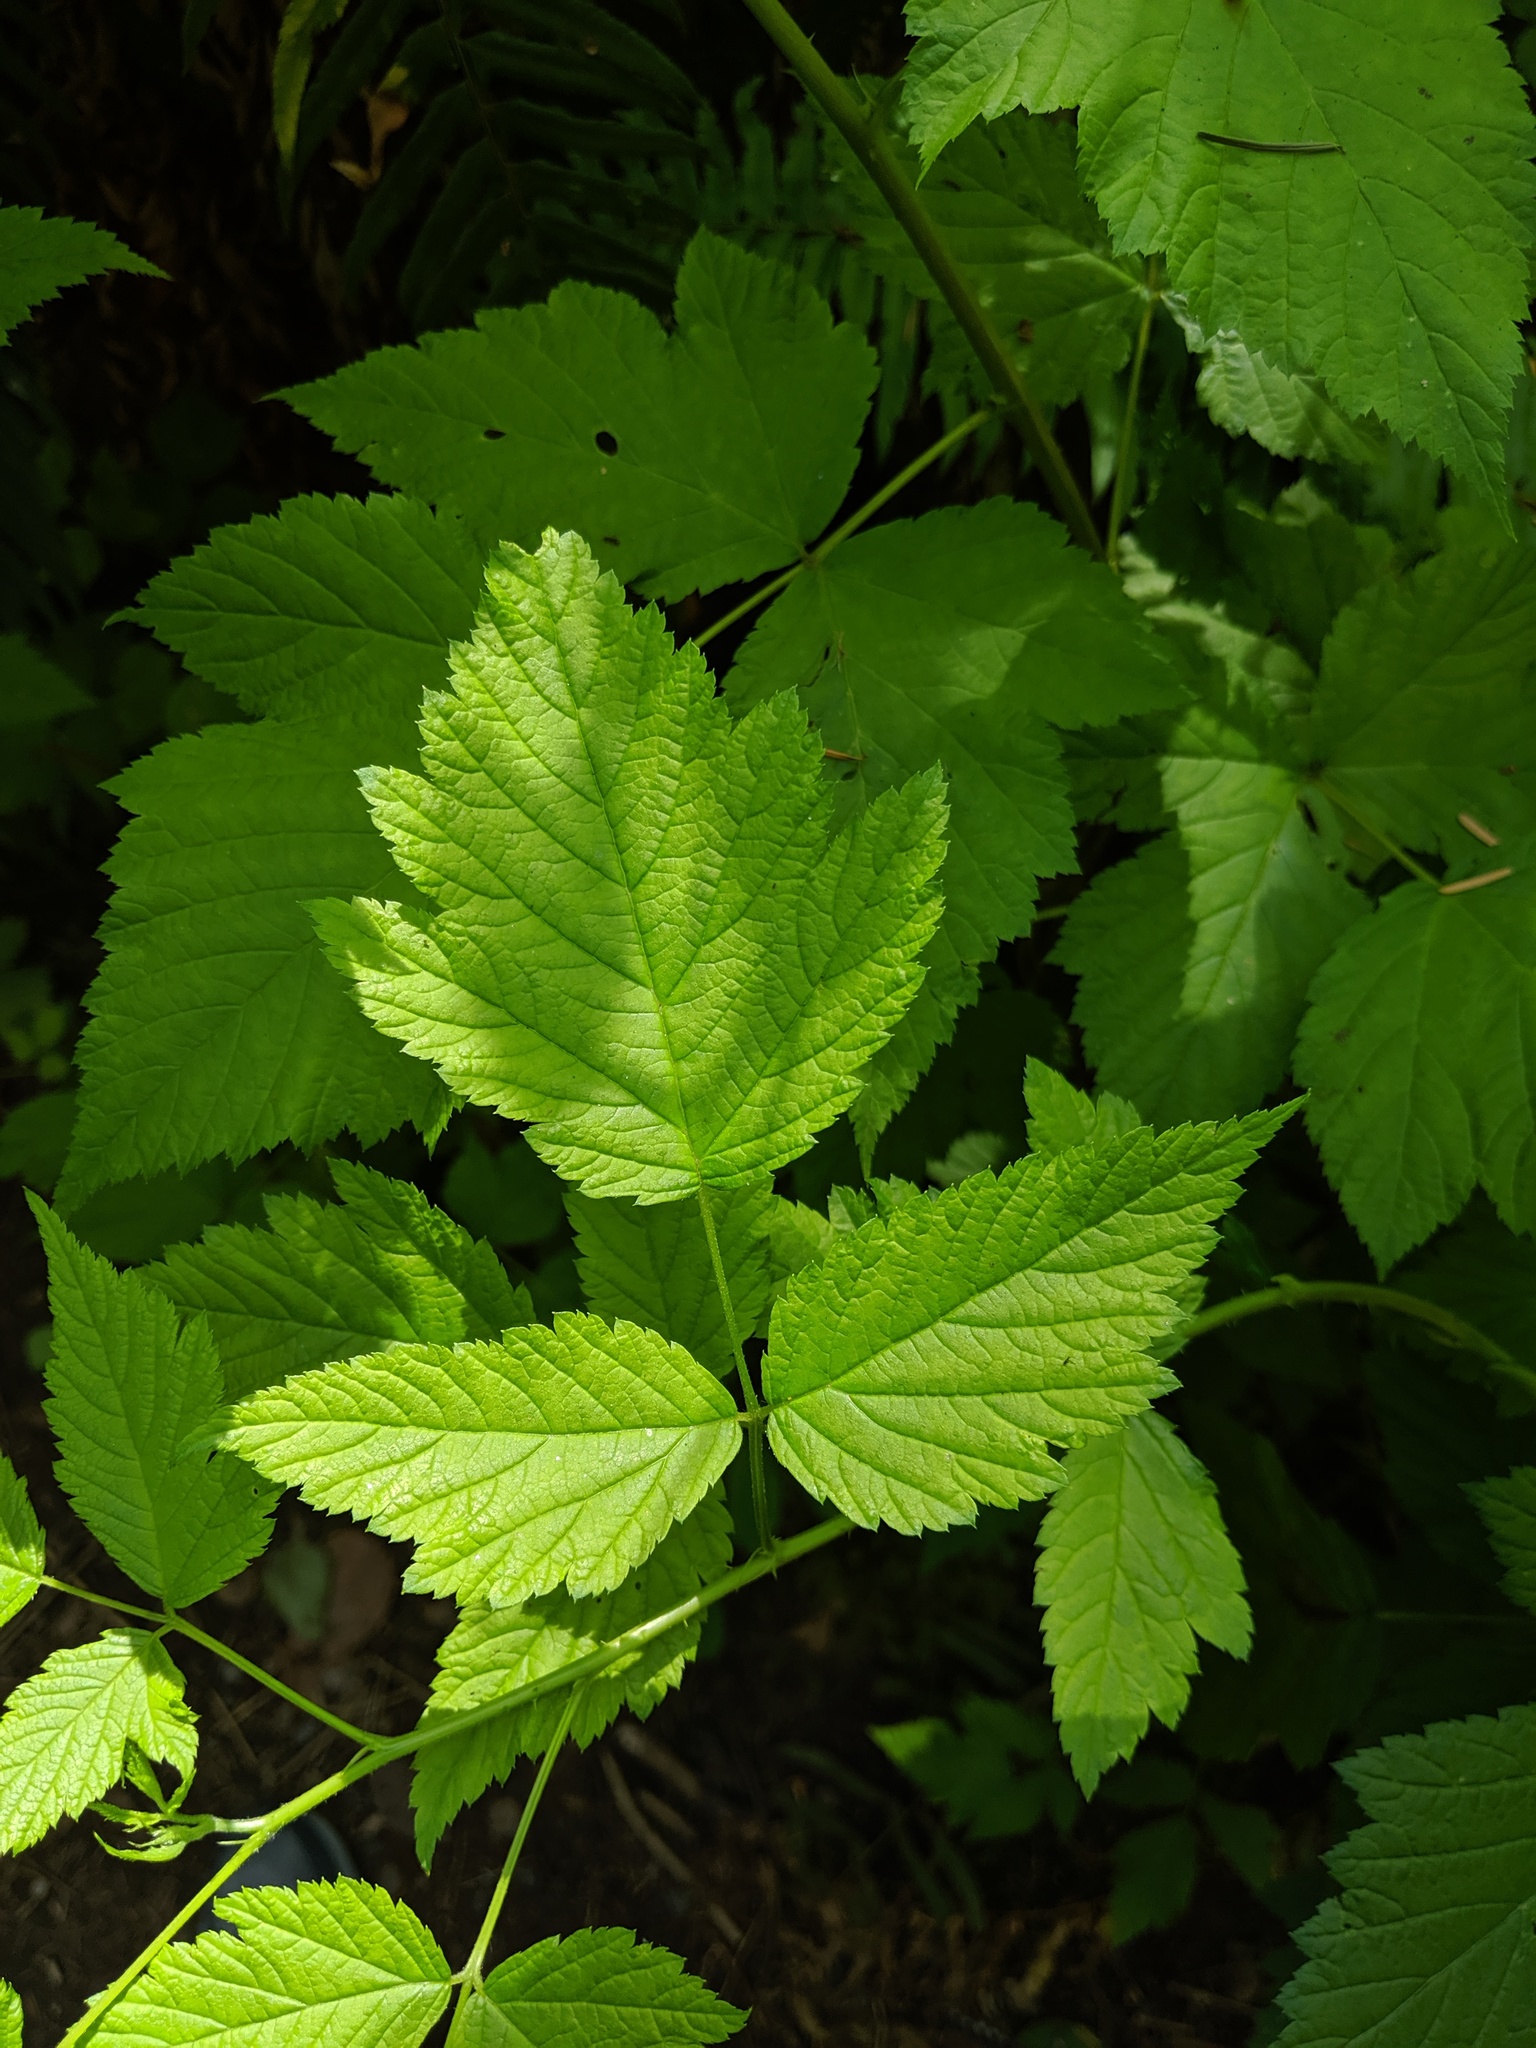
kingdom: Plantae
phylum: Tracheophyta
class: Magnoliopsida
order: Rosales
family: Rosaceae
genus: Rubus
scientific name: Rubus spectabilis
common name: Salmonberry
